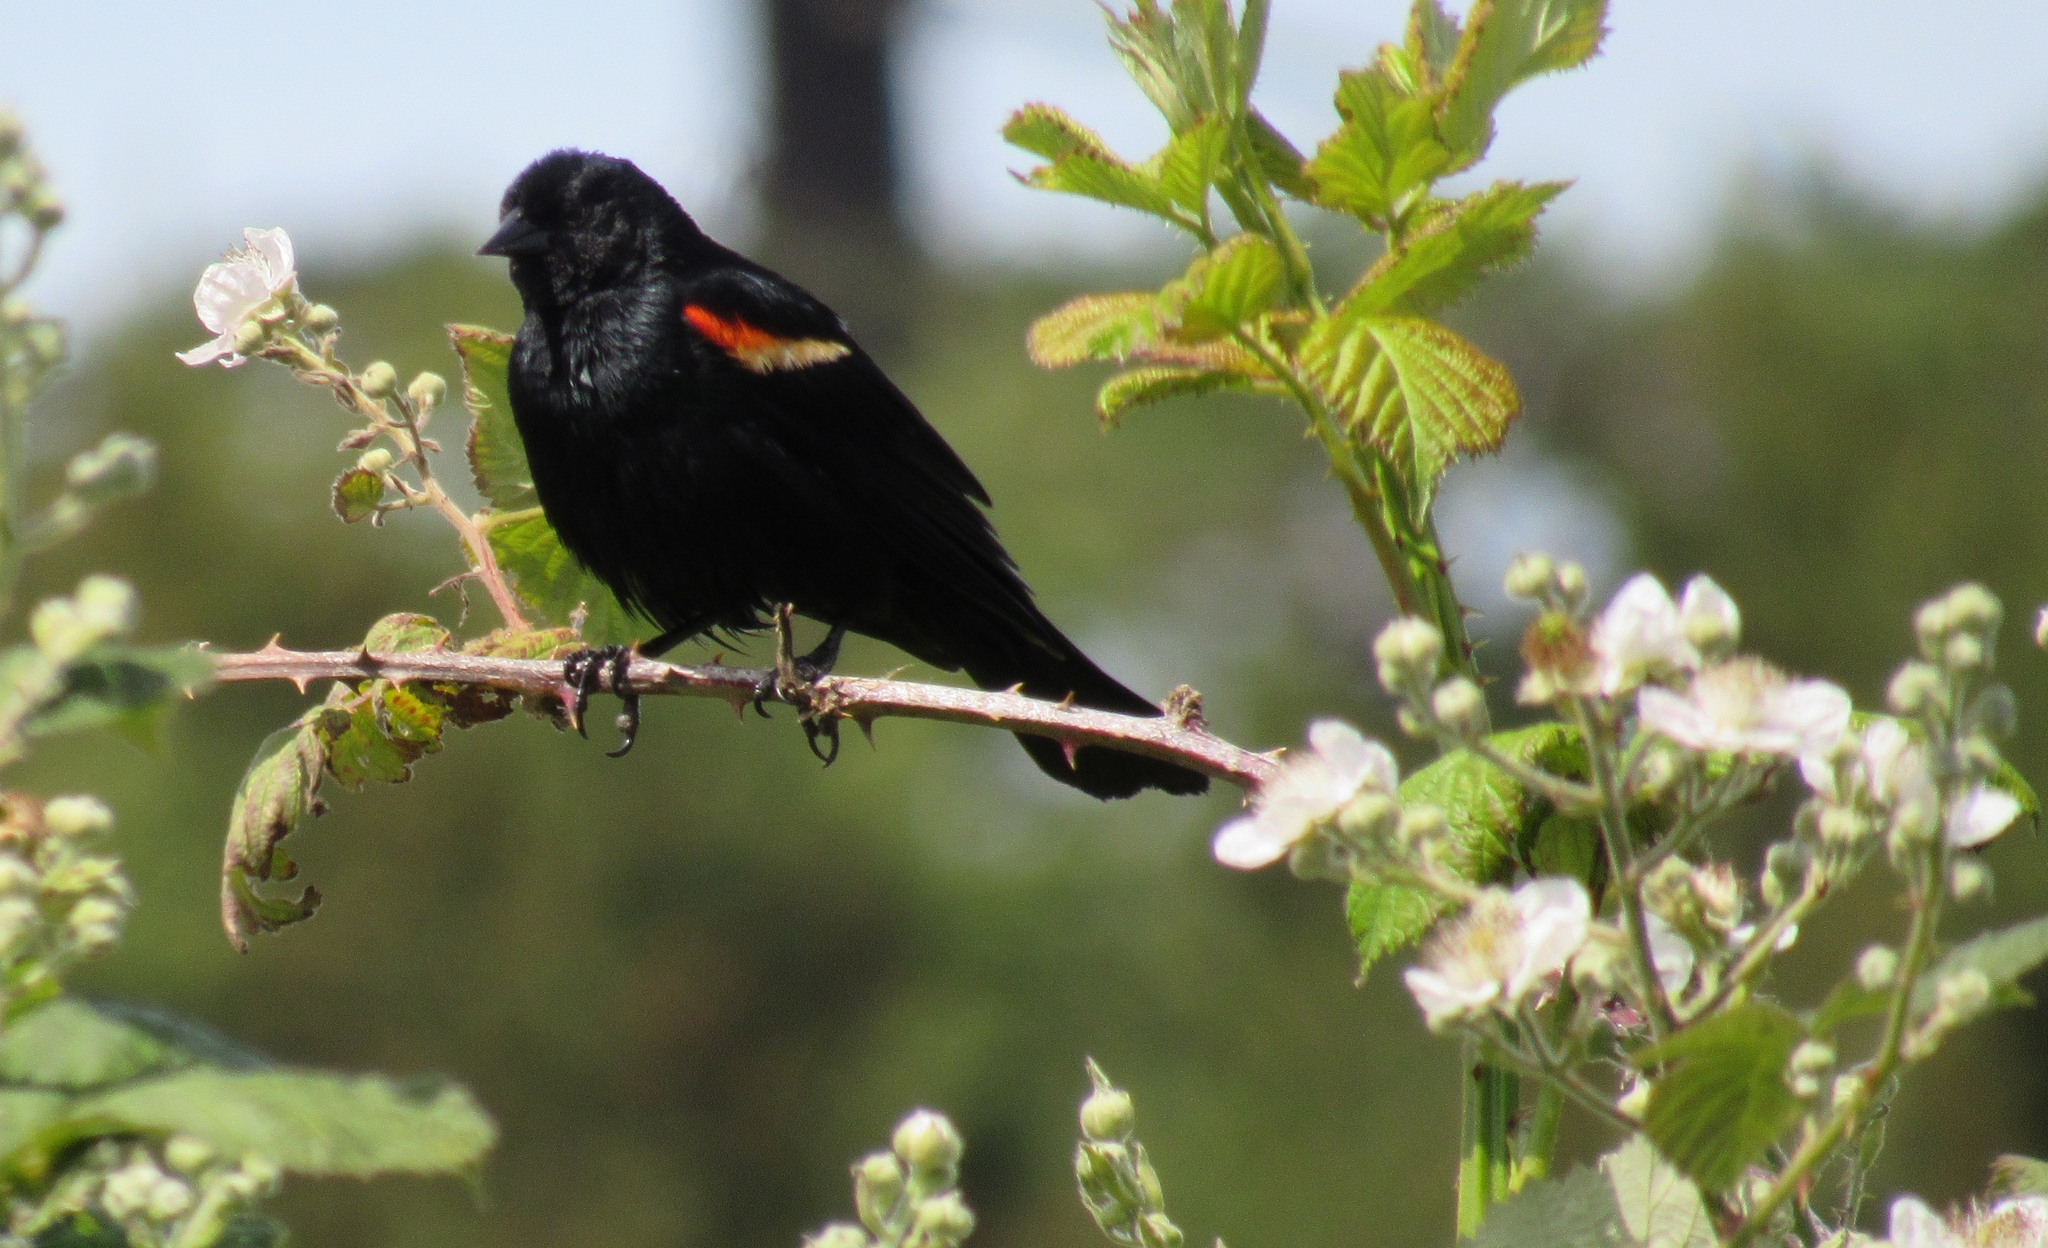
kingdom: Animalia
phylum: Chordata
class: Aves
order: Passeriformes
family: Icteridae
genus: Agelaius
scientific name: Agelaius phoeniceus
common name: Red-winged blackbird
